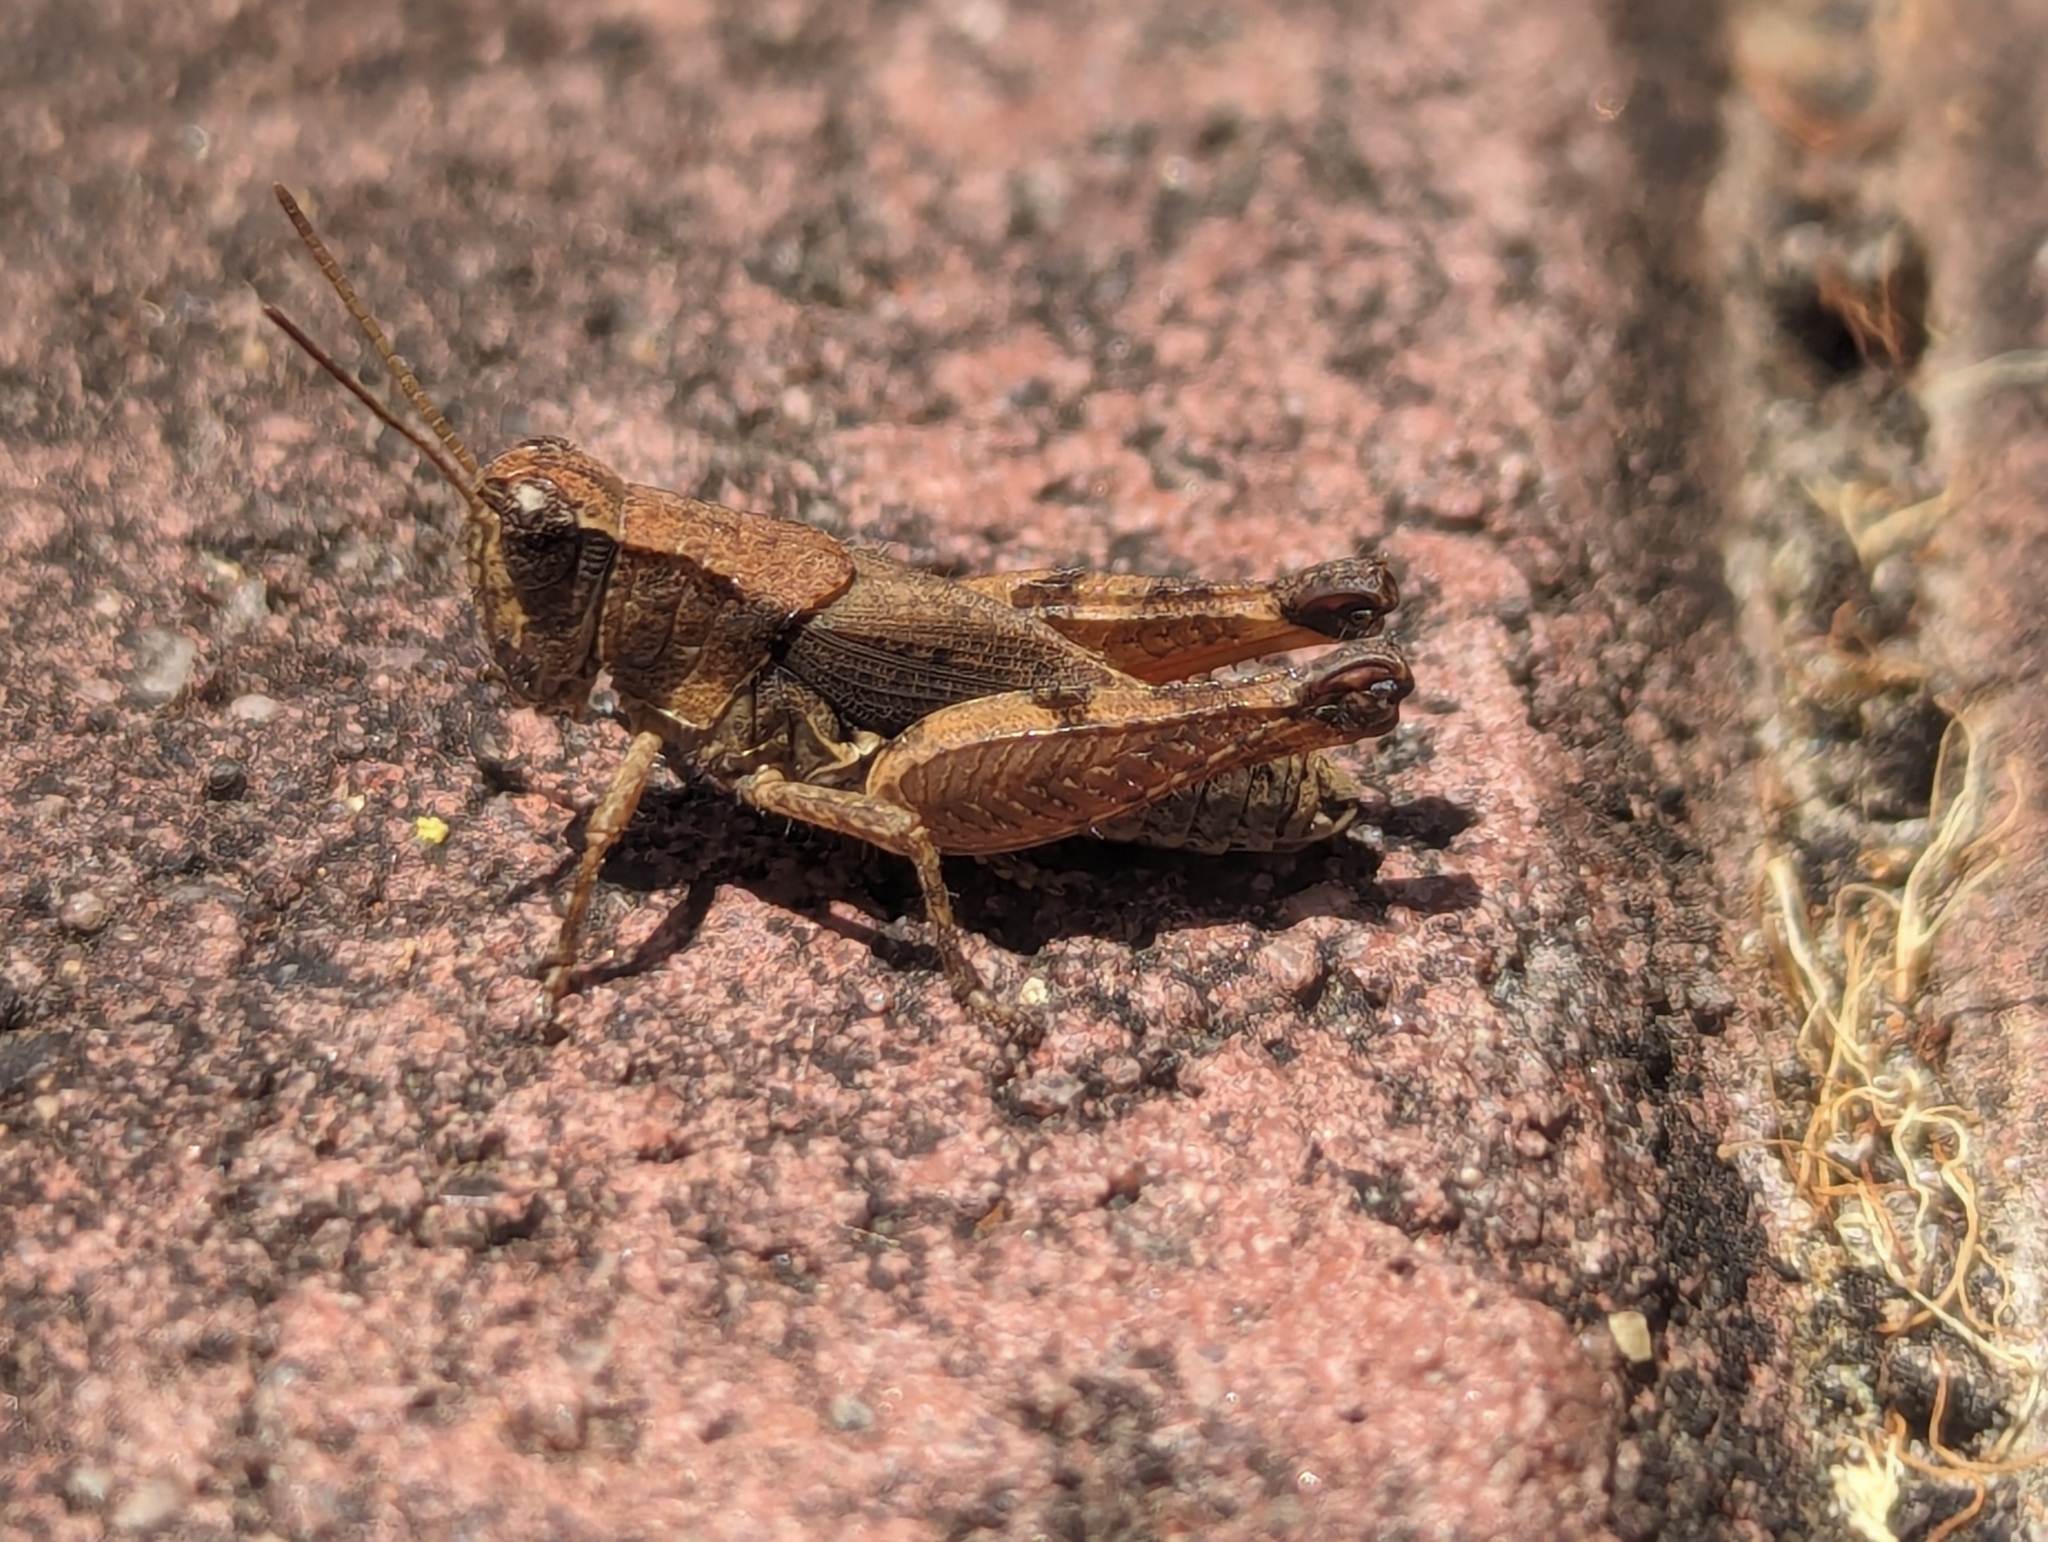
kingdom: Animalia
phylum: Arthropoda
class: Insecta
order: Orthoptera
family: Acrididae
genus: Phaulacridium
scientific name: Phaulacridium vittatum
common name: Wingless grasshopper
